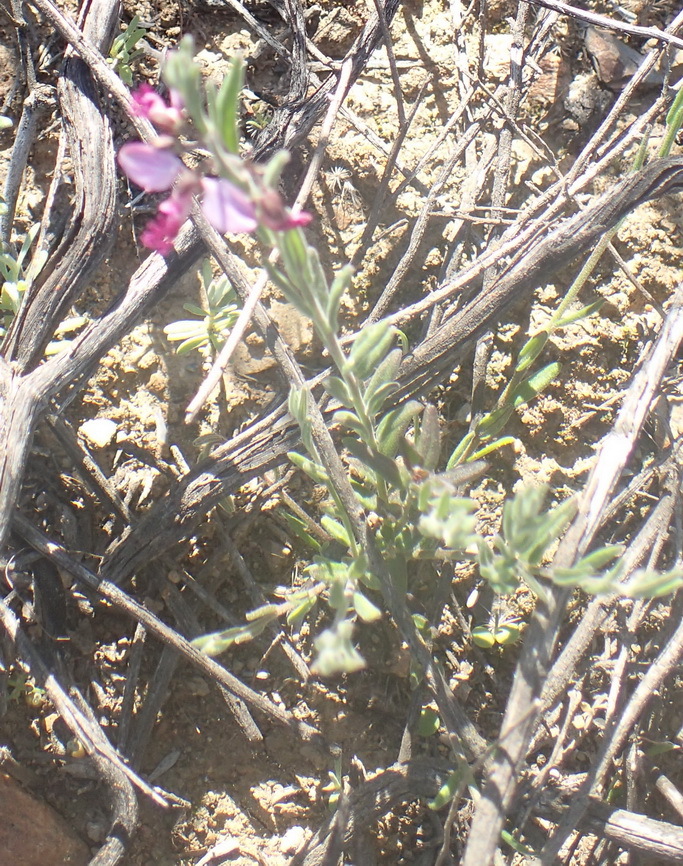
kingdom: Plantae
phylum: Tracheophyta
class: Magnoliopsida
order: Fabales
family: Polygalaceae
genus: Polygala
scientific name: Polygala scabra
